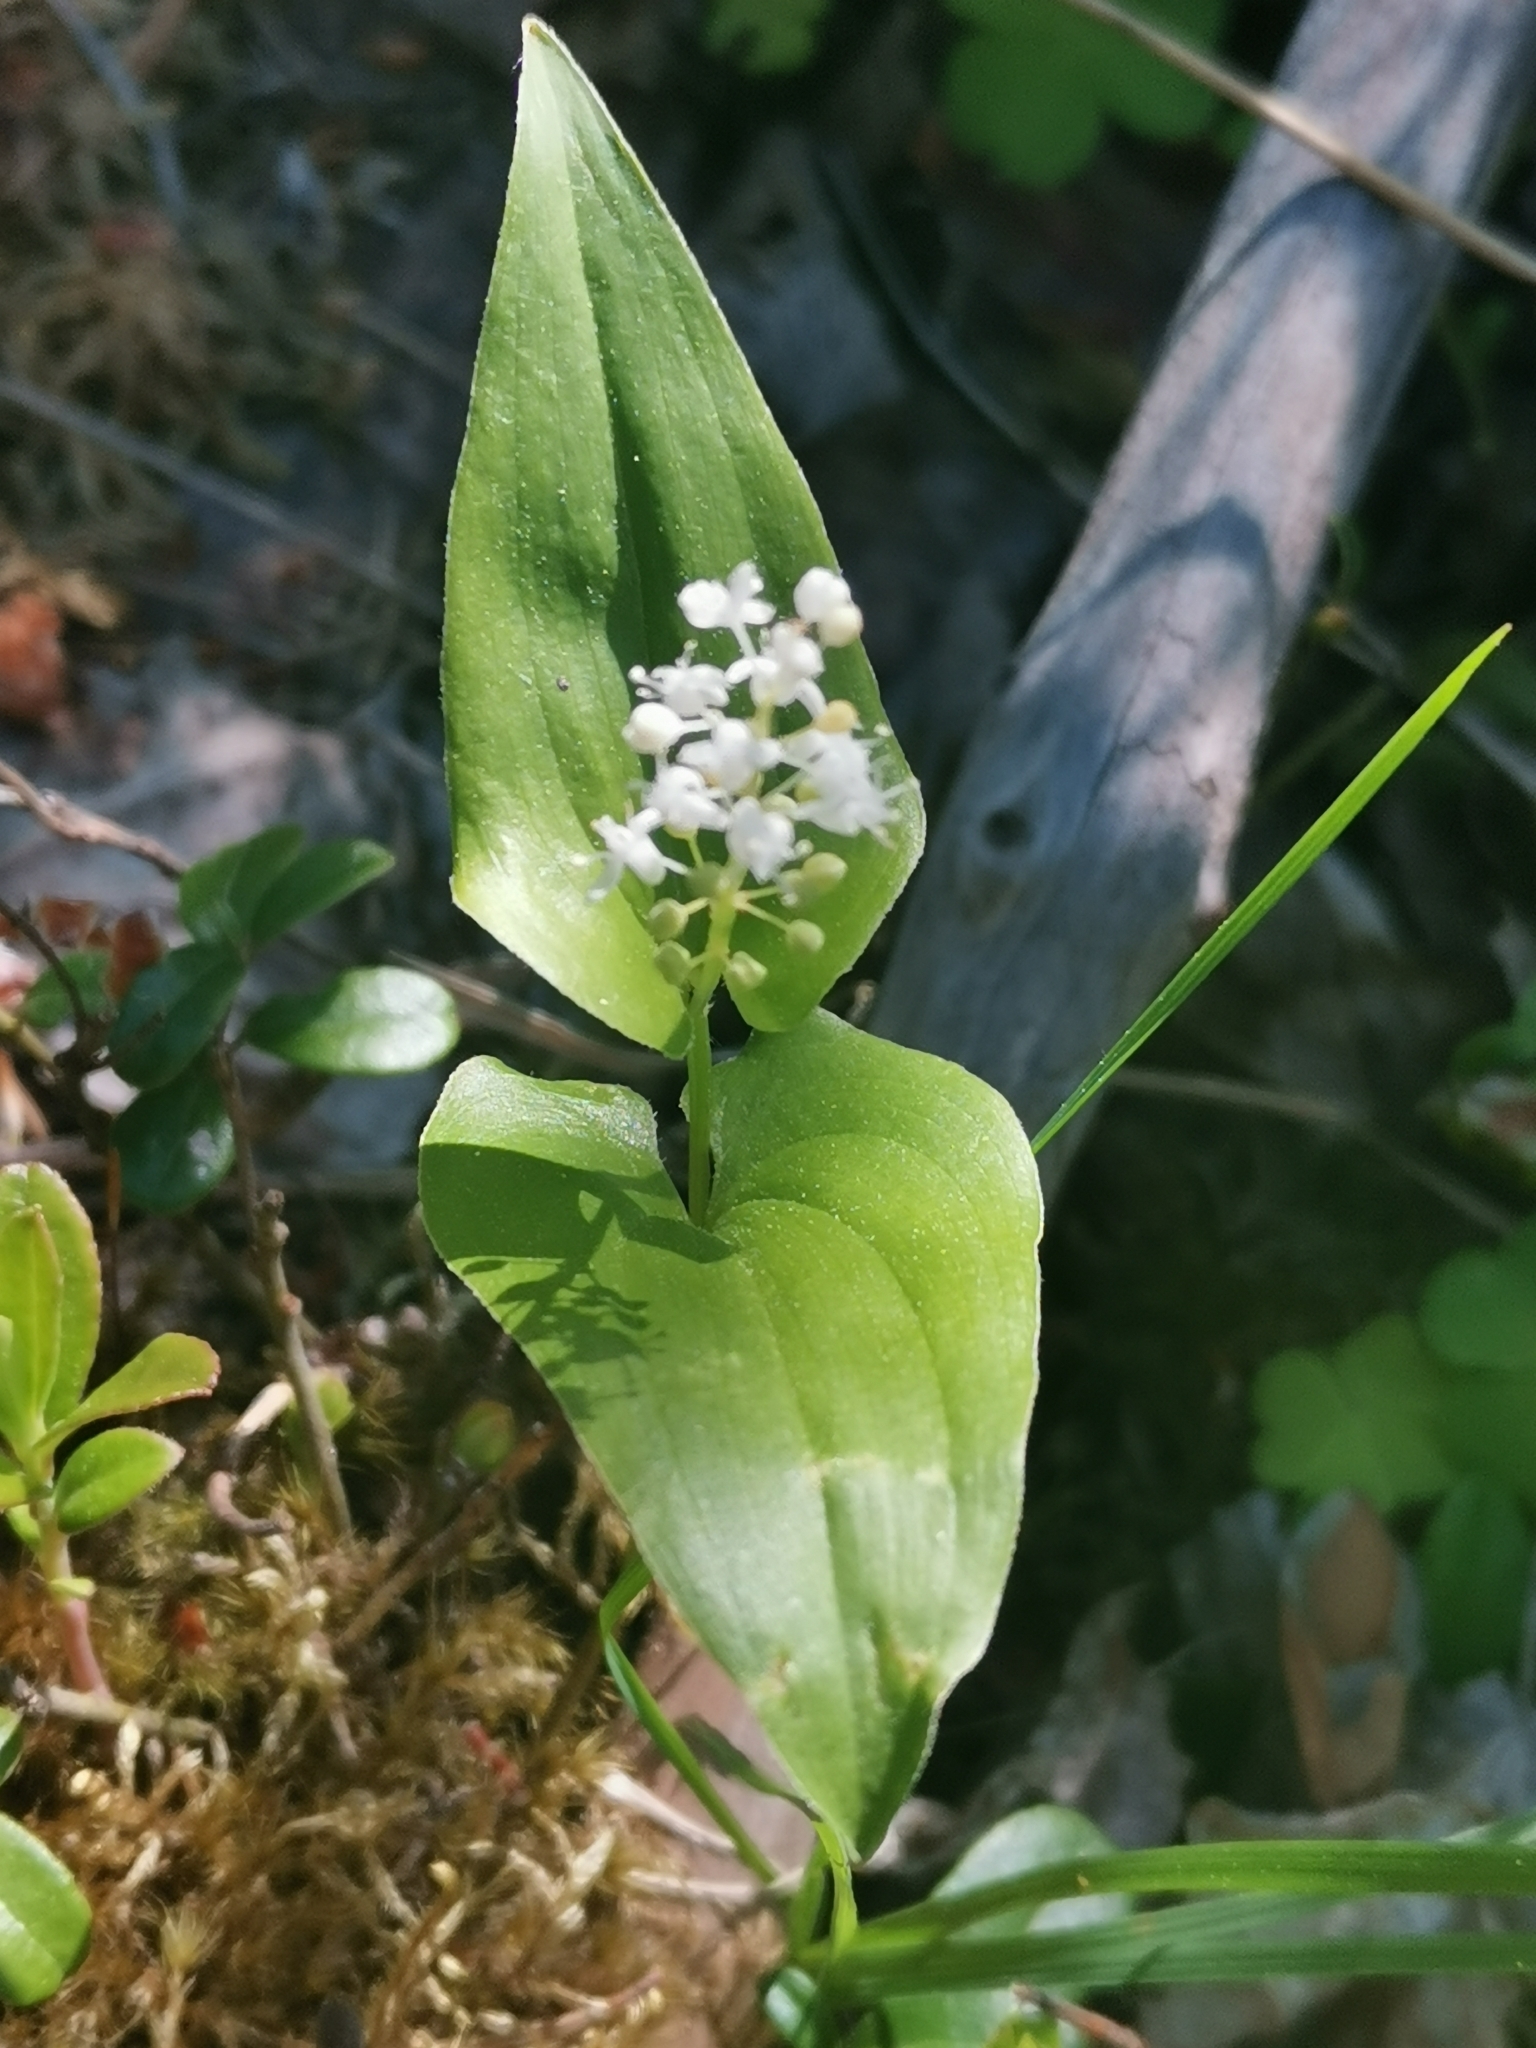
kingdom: Plantae
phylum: Tracheophyta
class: Liliopsida
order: Asparagales
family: Asparagaceae
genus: Maianthemum
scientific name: Maianthemum bifolium
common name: May lily
